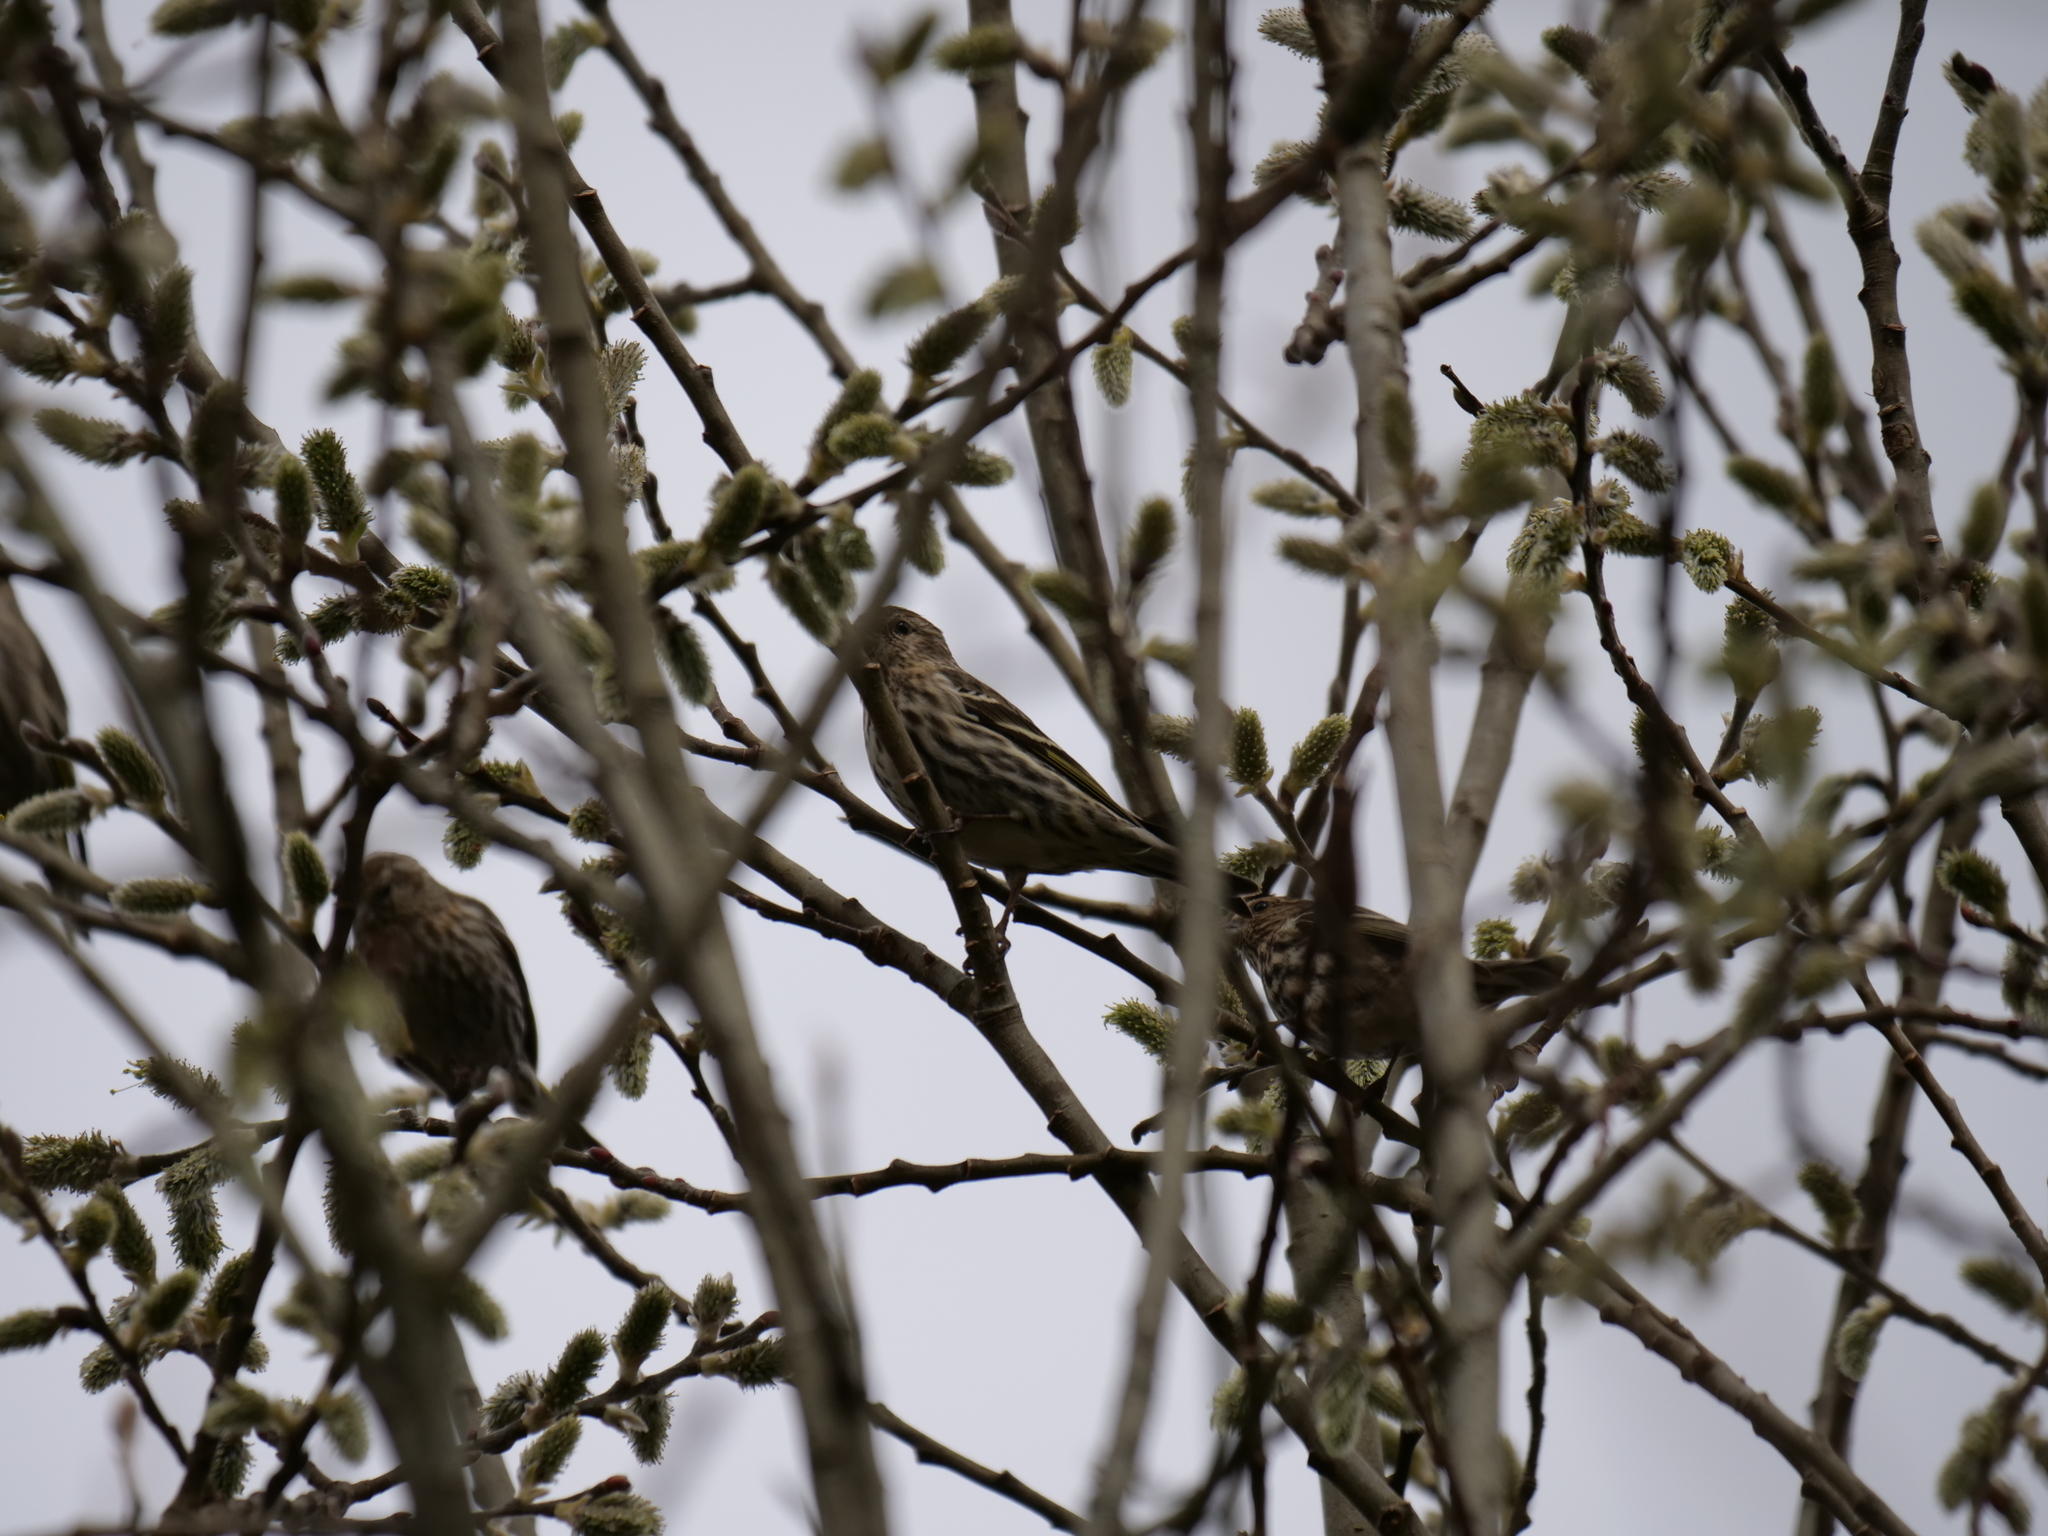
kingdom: Animalia
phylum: Chordata
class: Aves
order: Passeriformes
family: Fringillidae
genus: Spinus
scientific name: Spinus pinus
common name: Pine siskin
